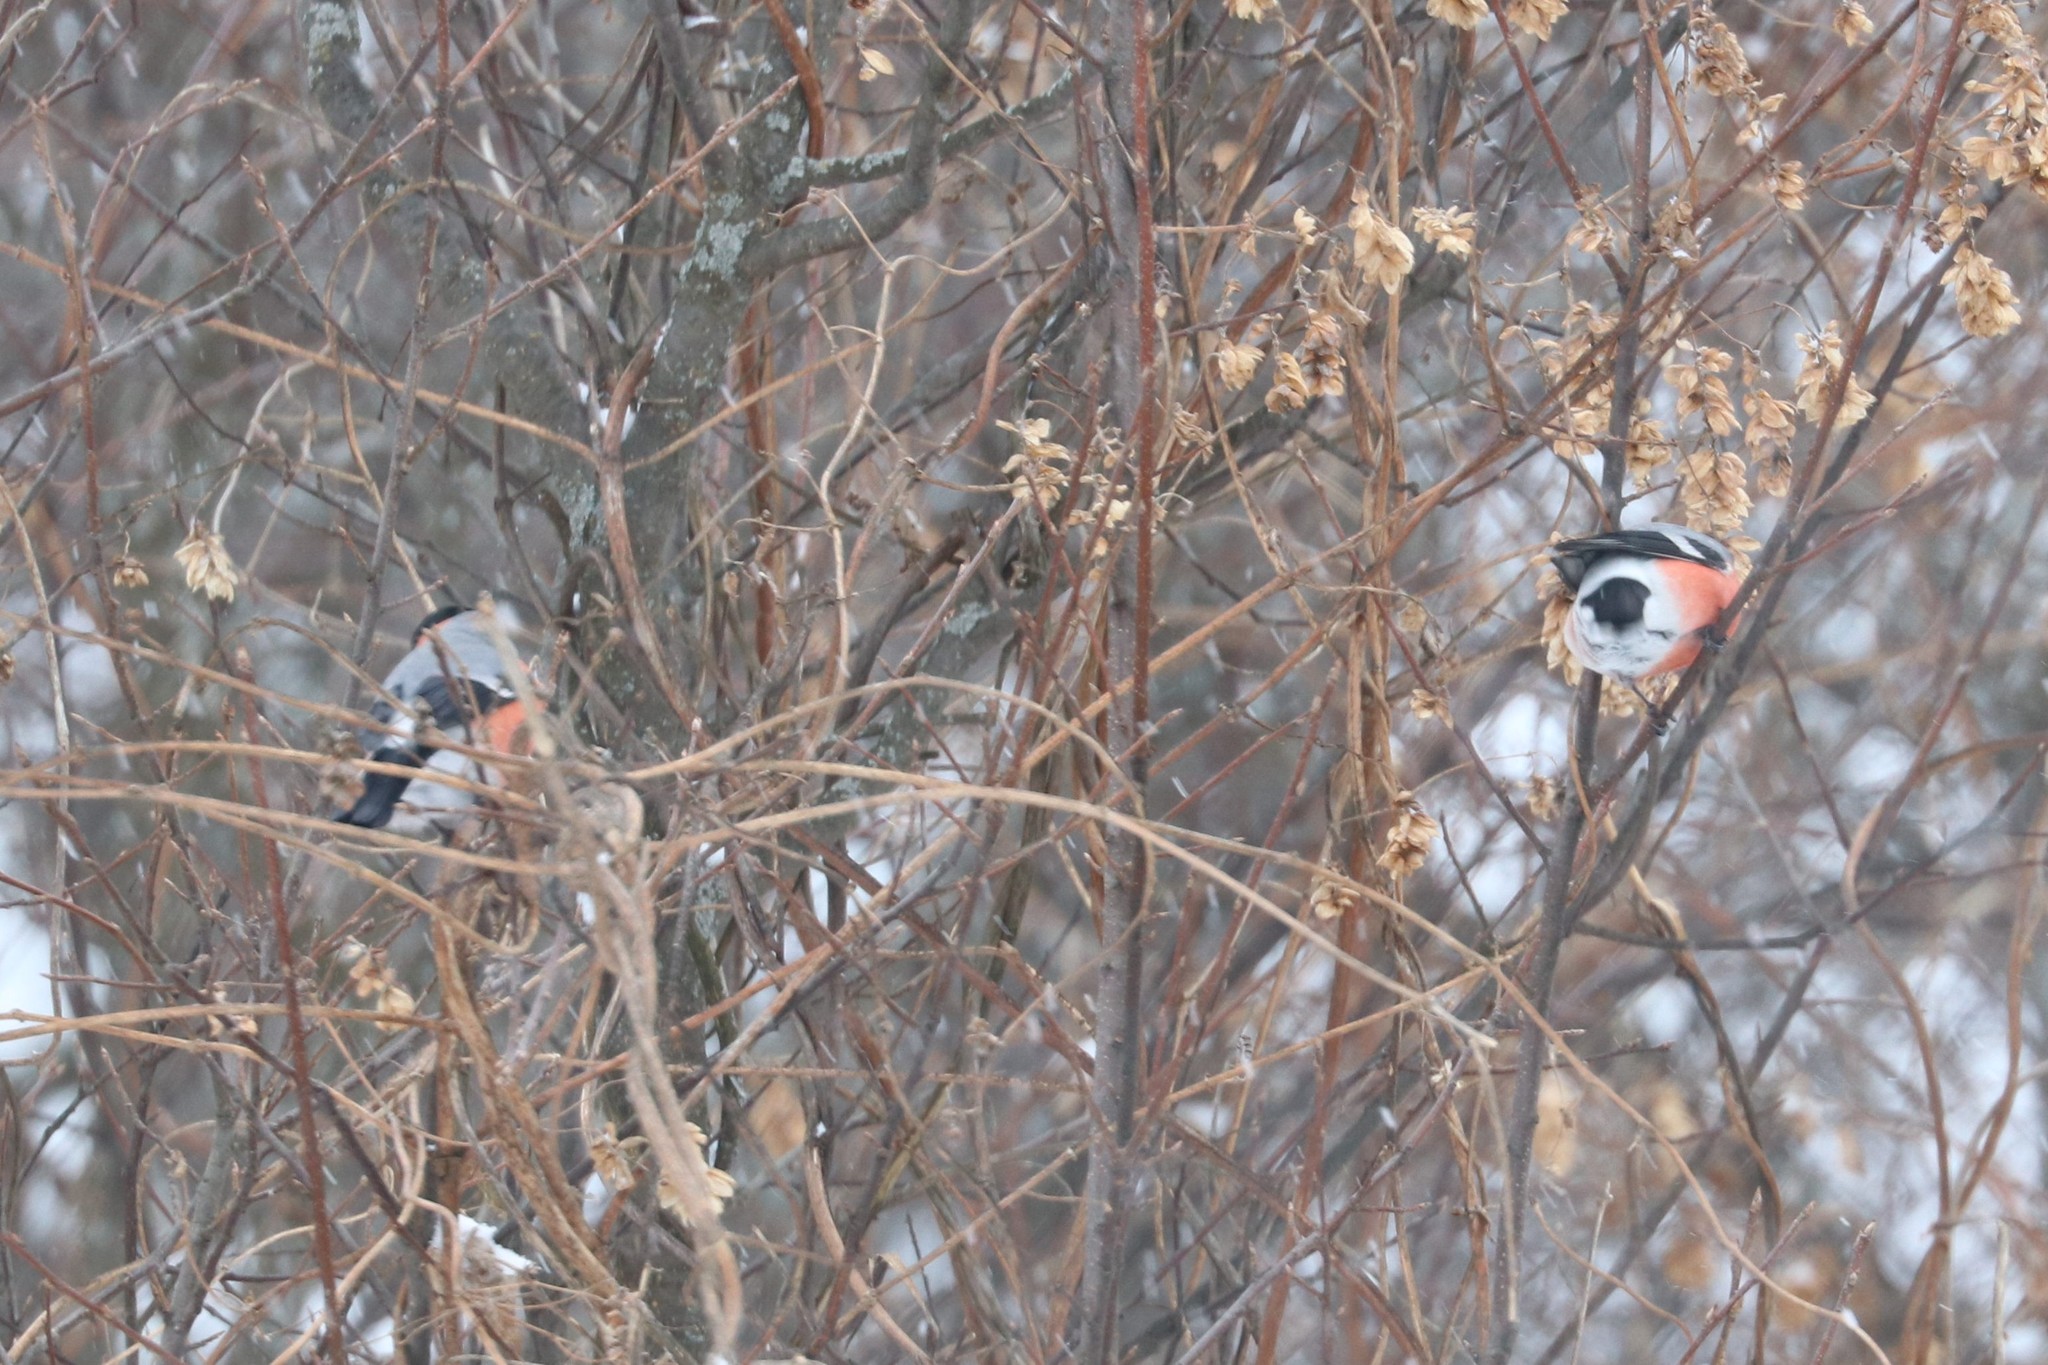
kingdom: Animalia
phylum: Chordata
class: Aves
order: Passeriformes
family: Fringillidae
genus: Pyrrhula
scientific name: Pyrrhula pyrrhula
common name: Eurasian bullfinch
